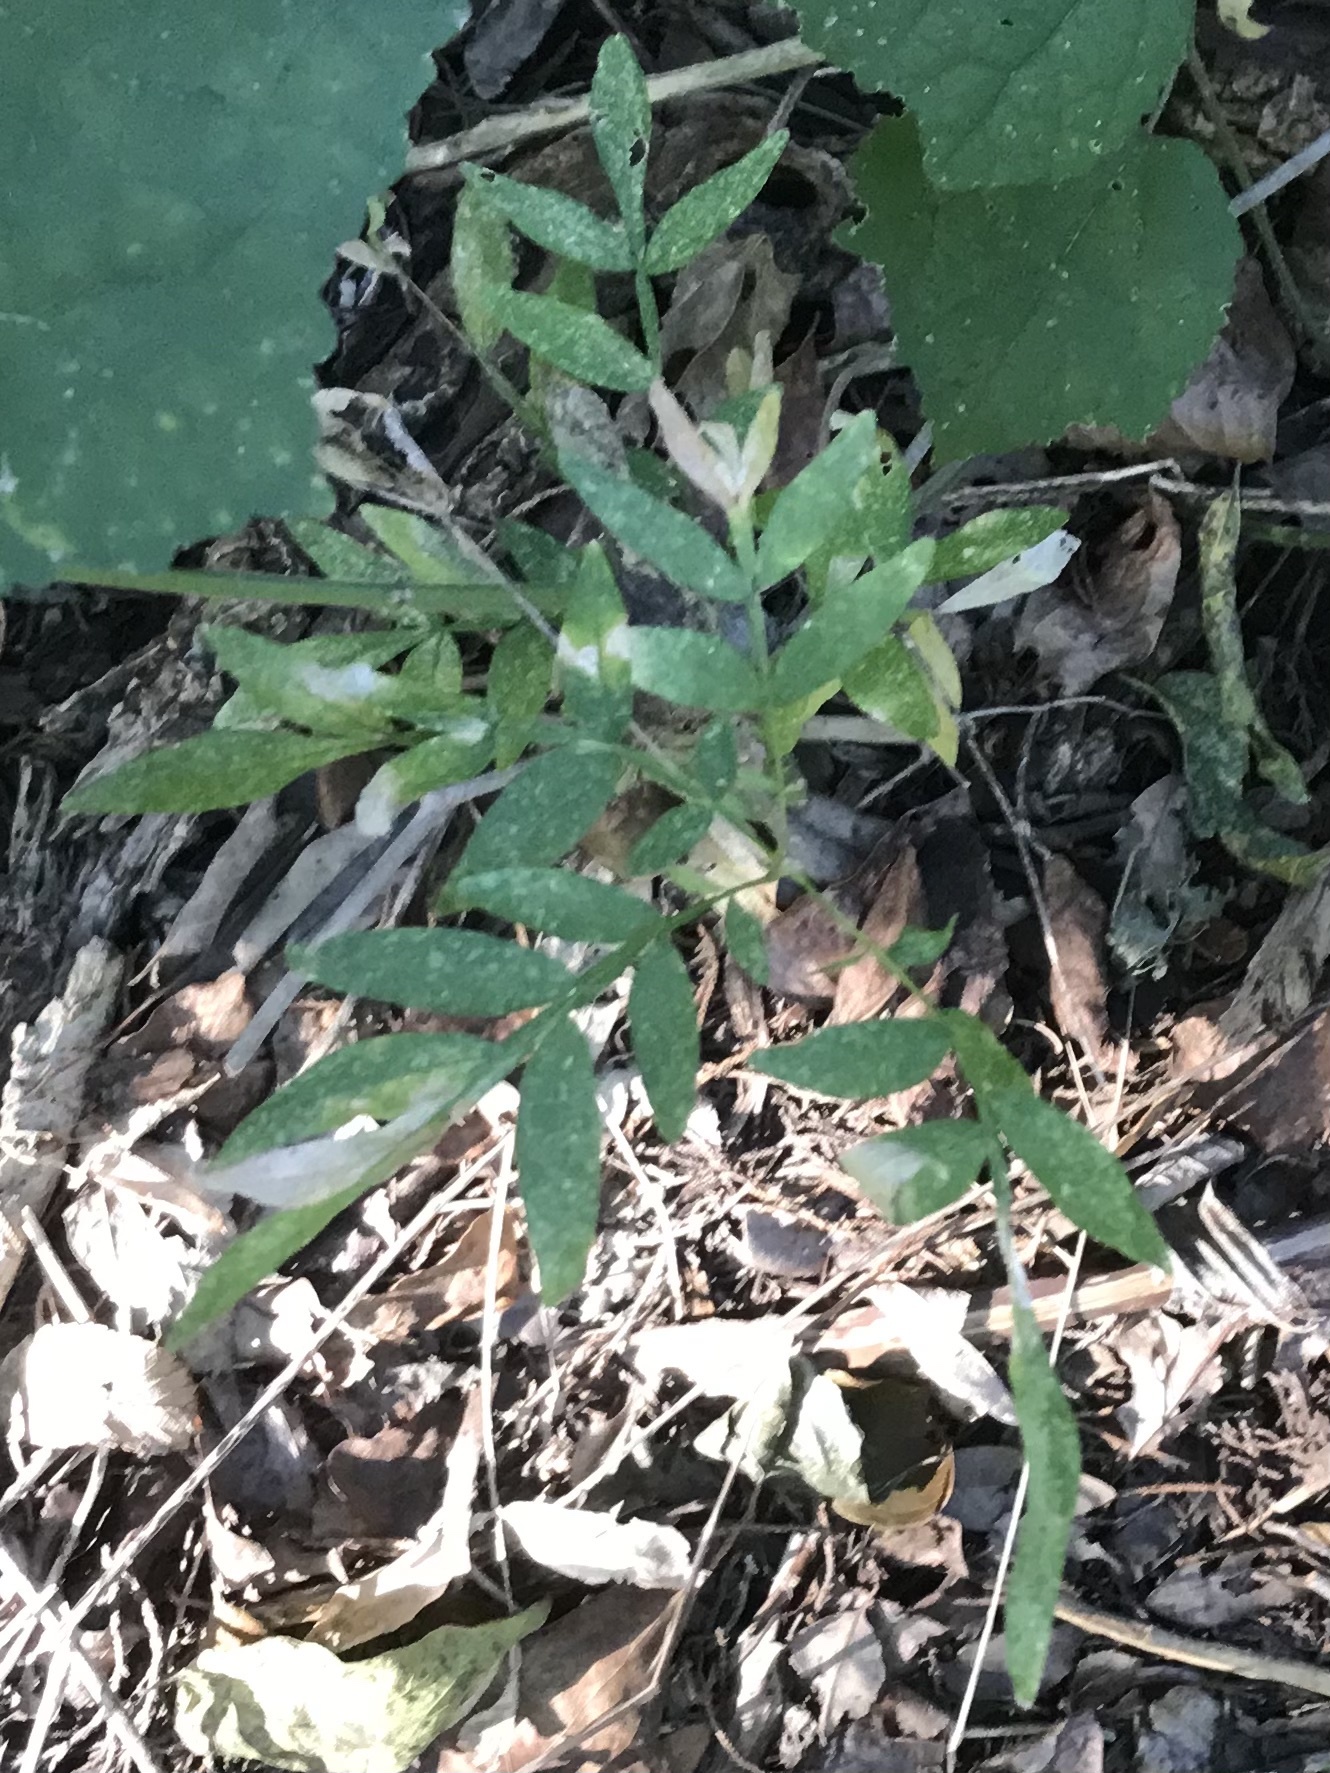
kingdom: Plantae
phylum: Tracheophyta
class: Magnoliopsida
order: Sapindales
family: Sapindaceae
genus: Sapindus
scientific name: Sapindus drummondii
